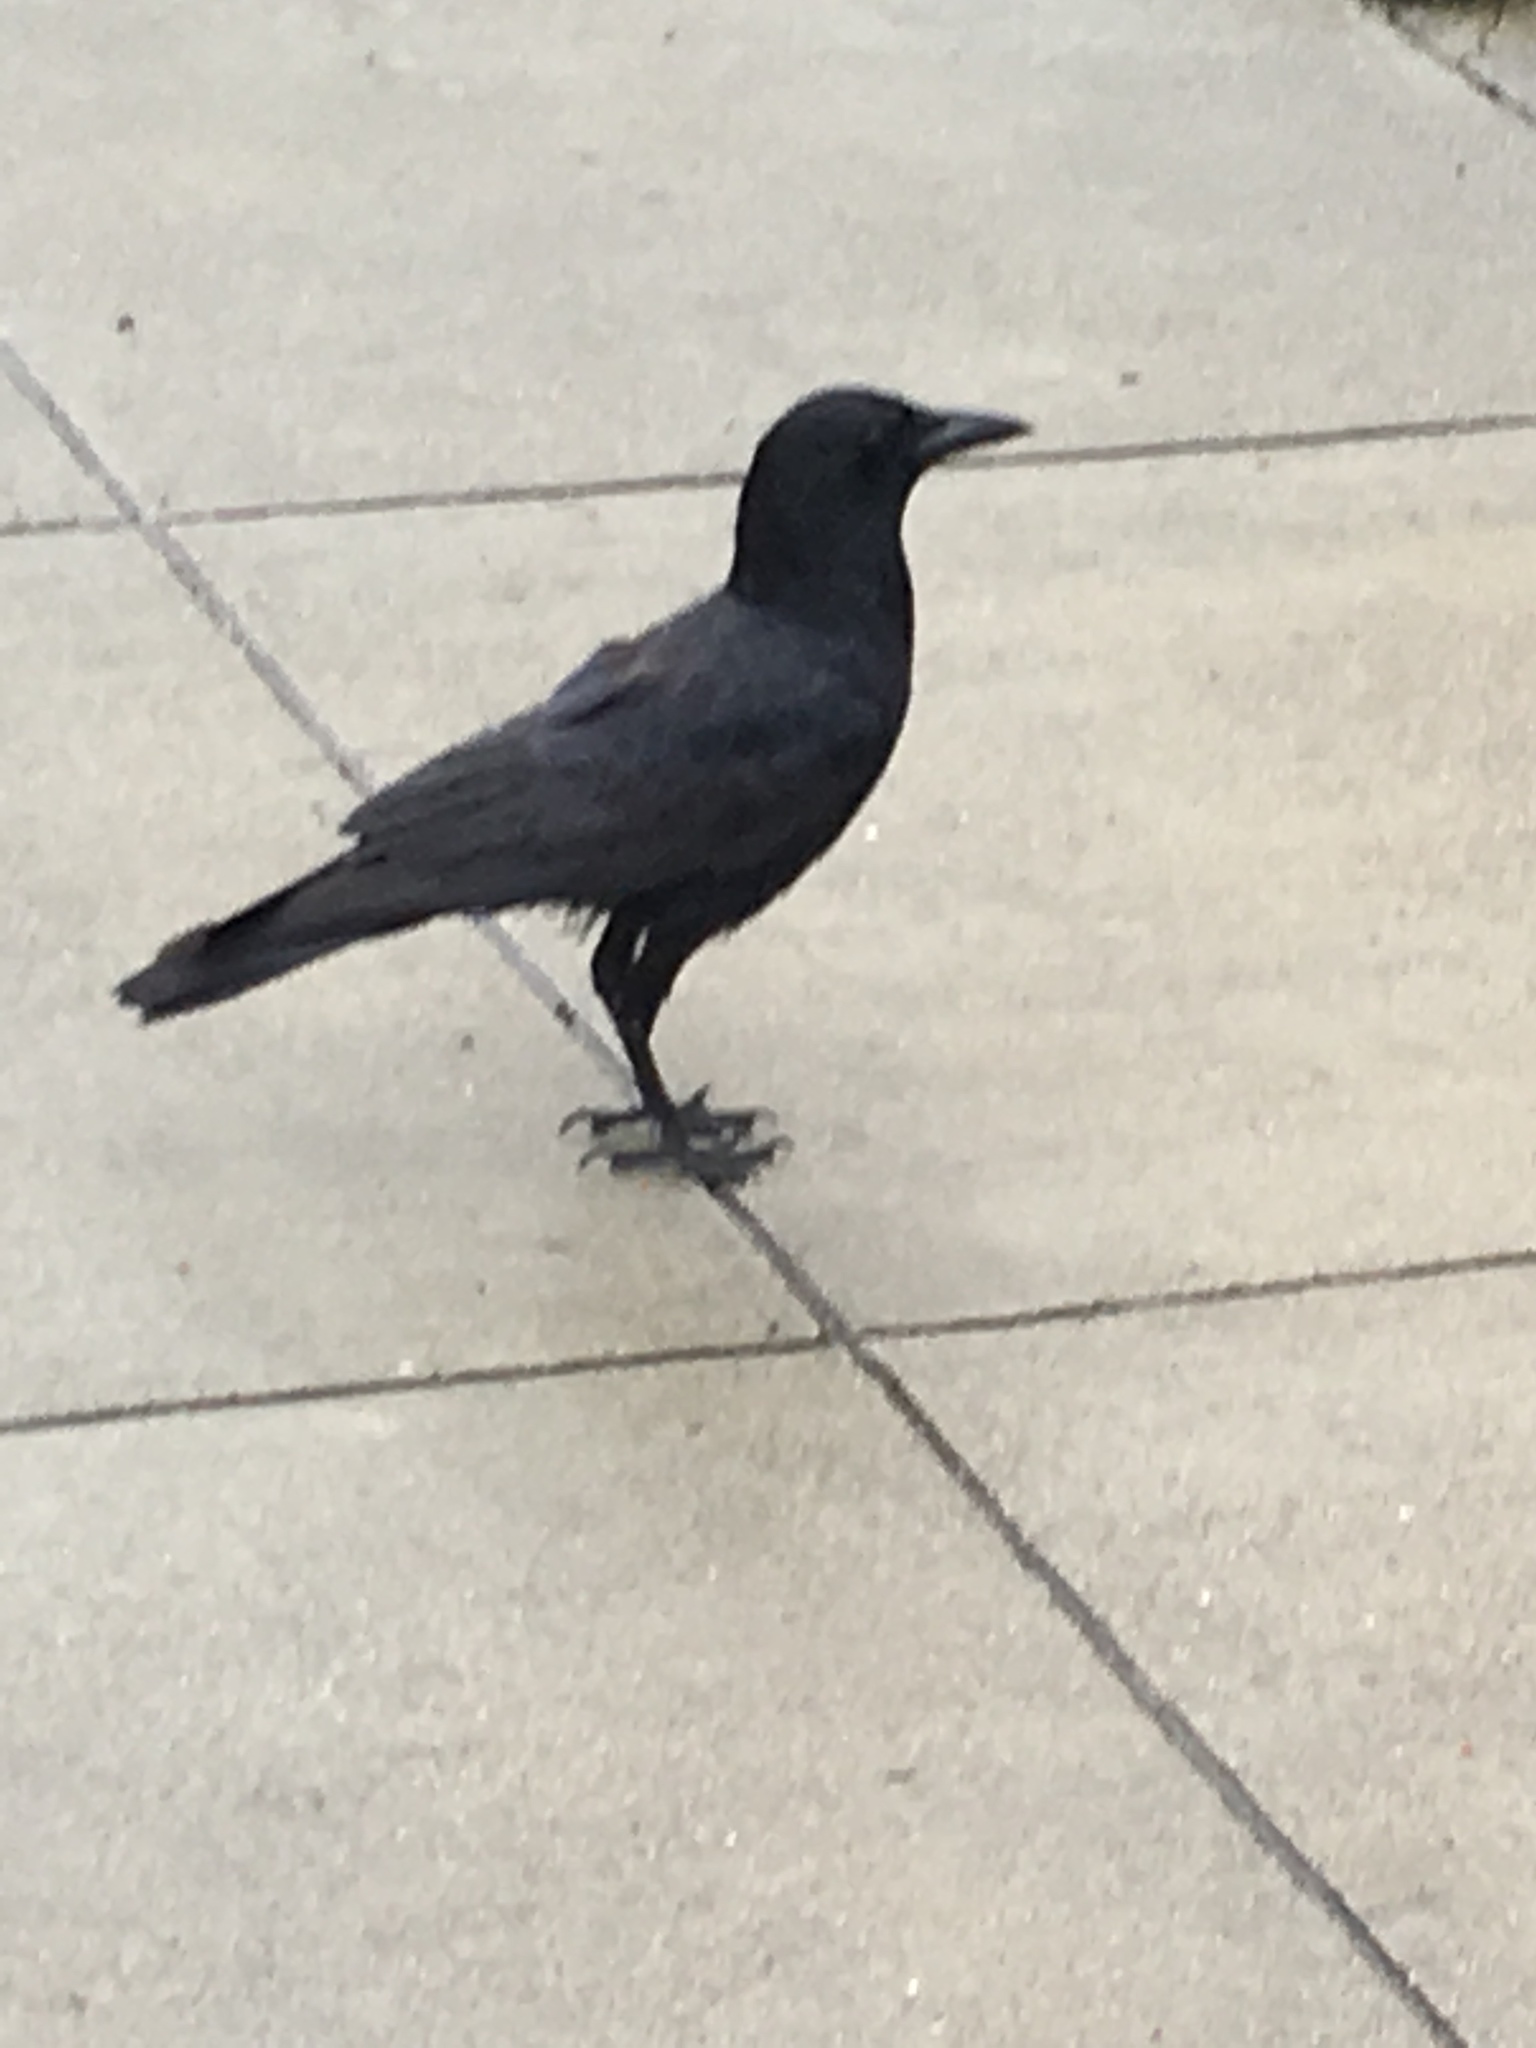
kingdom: Animalia
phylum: Chordata
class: Aves
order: Passeriformes
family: Corvidae
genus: Corvus
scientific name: Corvus brachyrhynchos
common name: American crow
